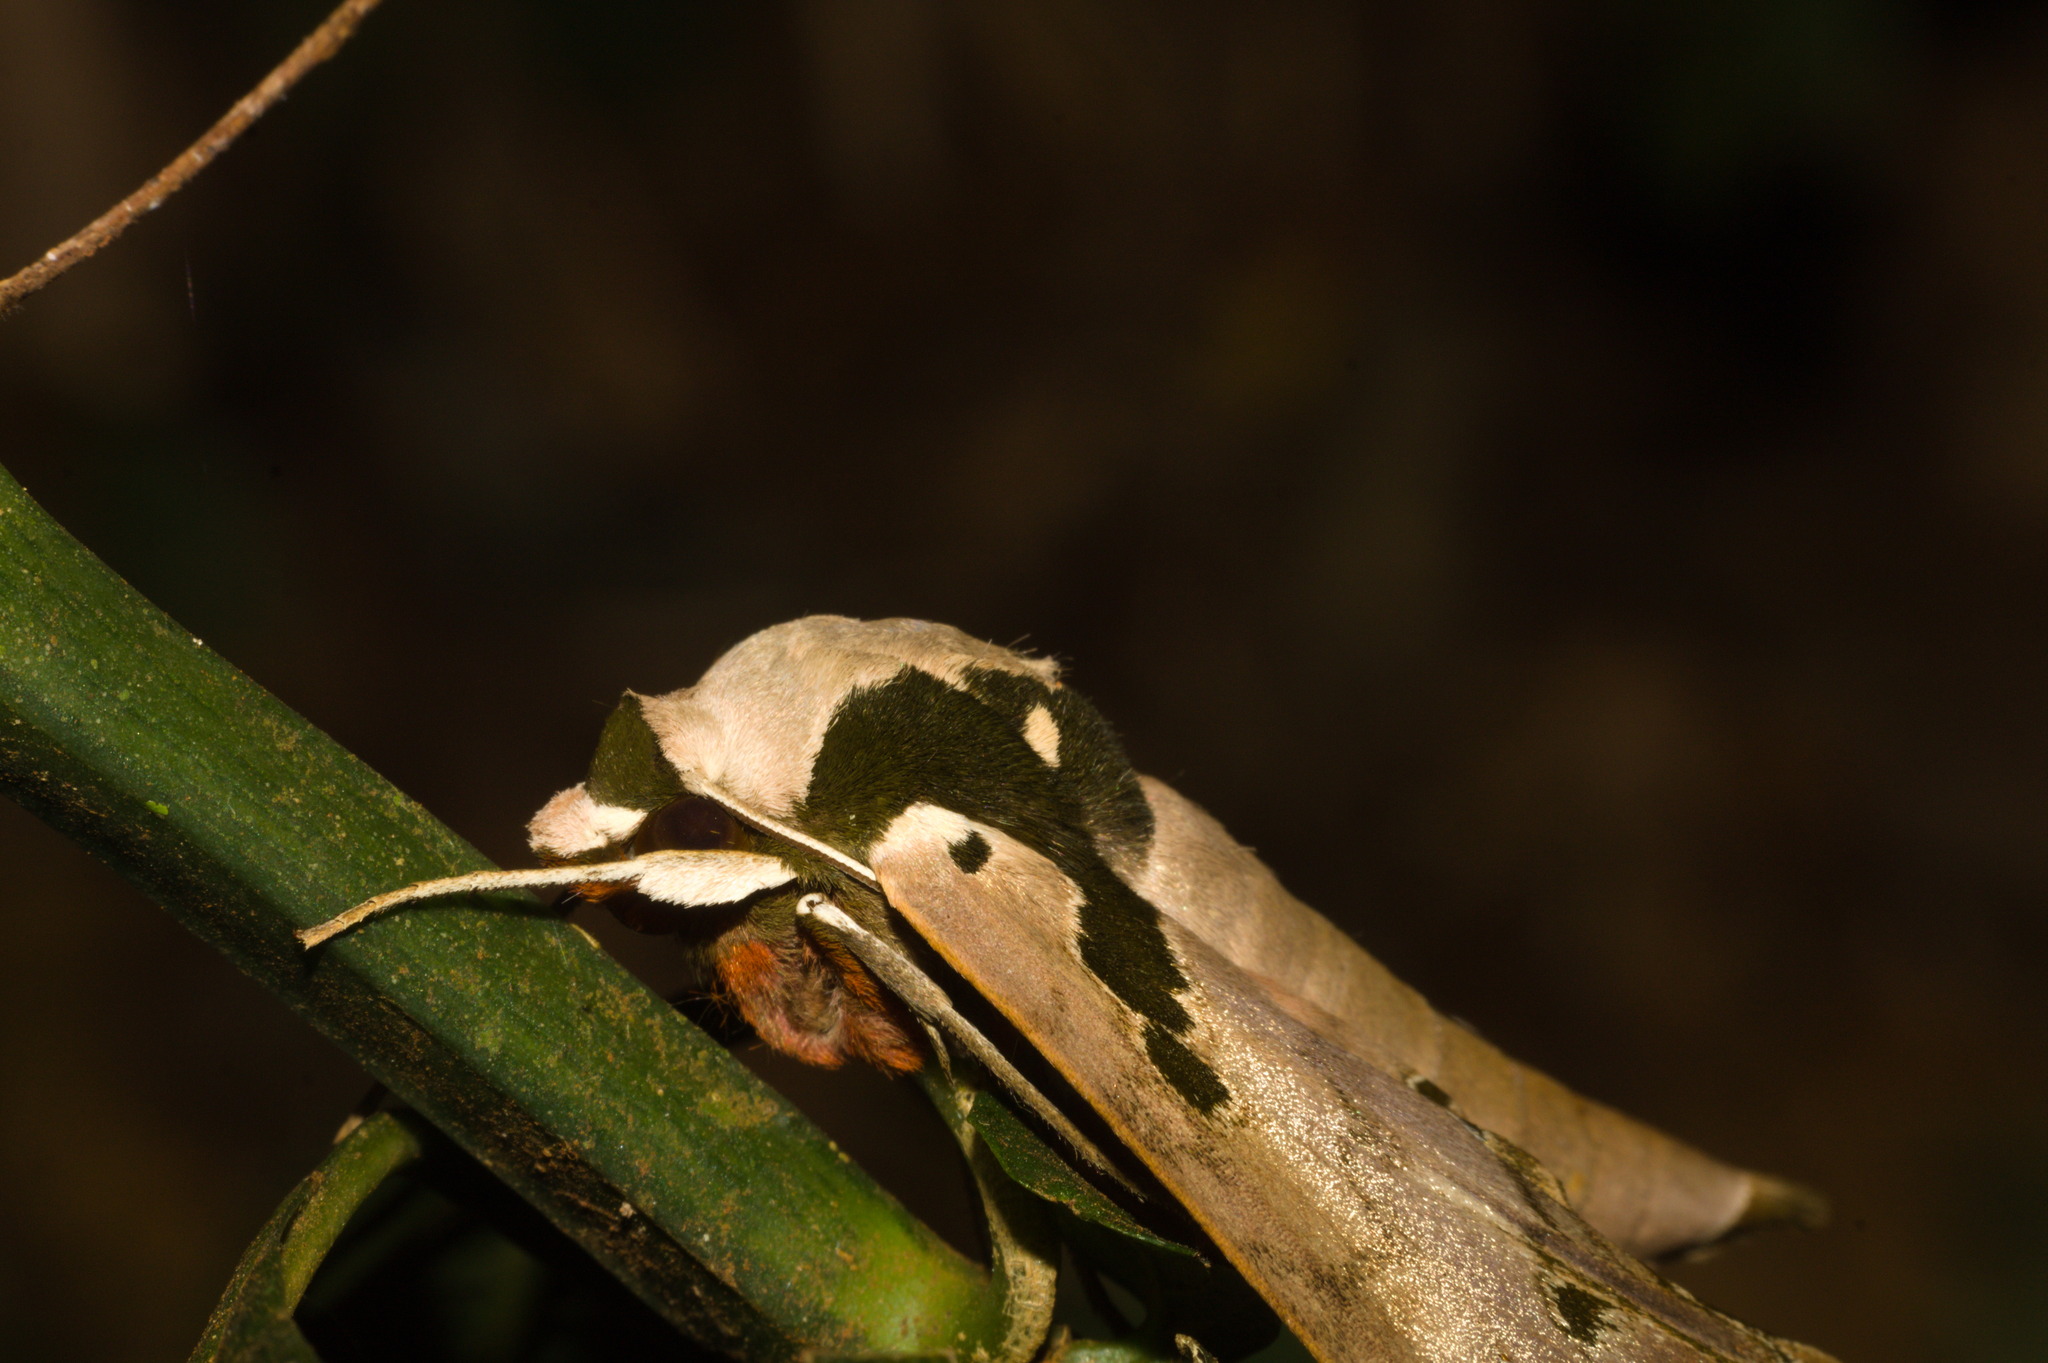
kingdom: Animalia
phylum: Arthropoda
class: Insecta
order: Lepidoptera
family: Sphingidae
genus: Adhemarius
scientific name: Adhemarius daphne
